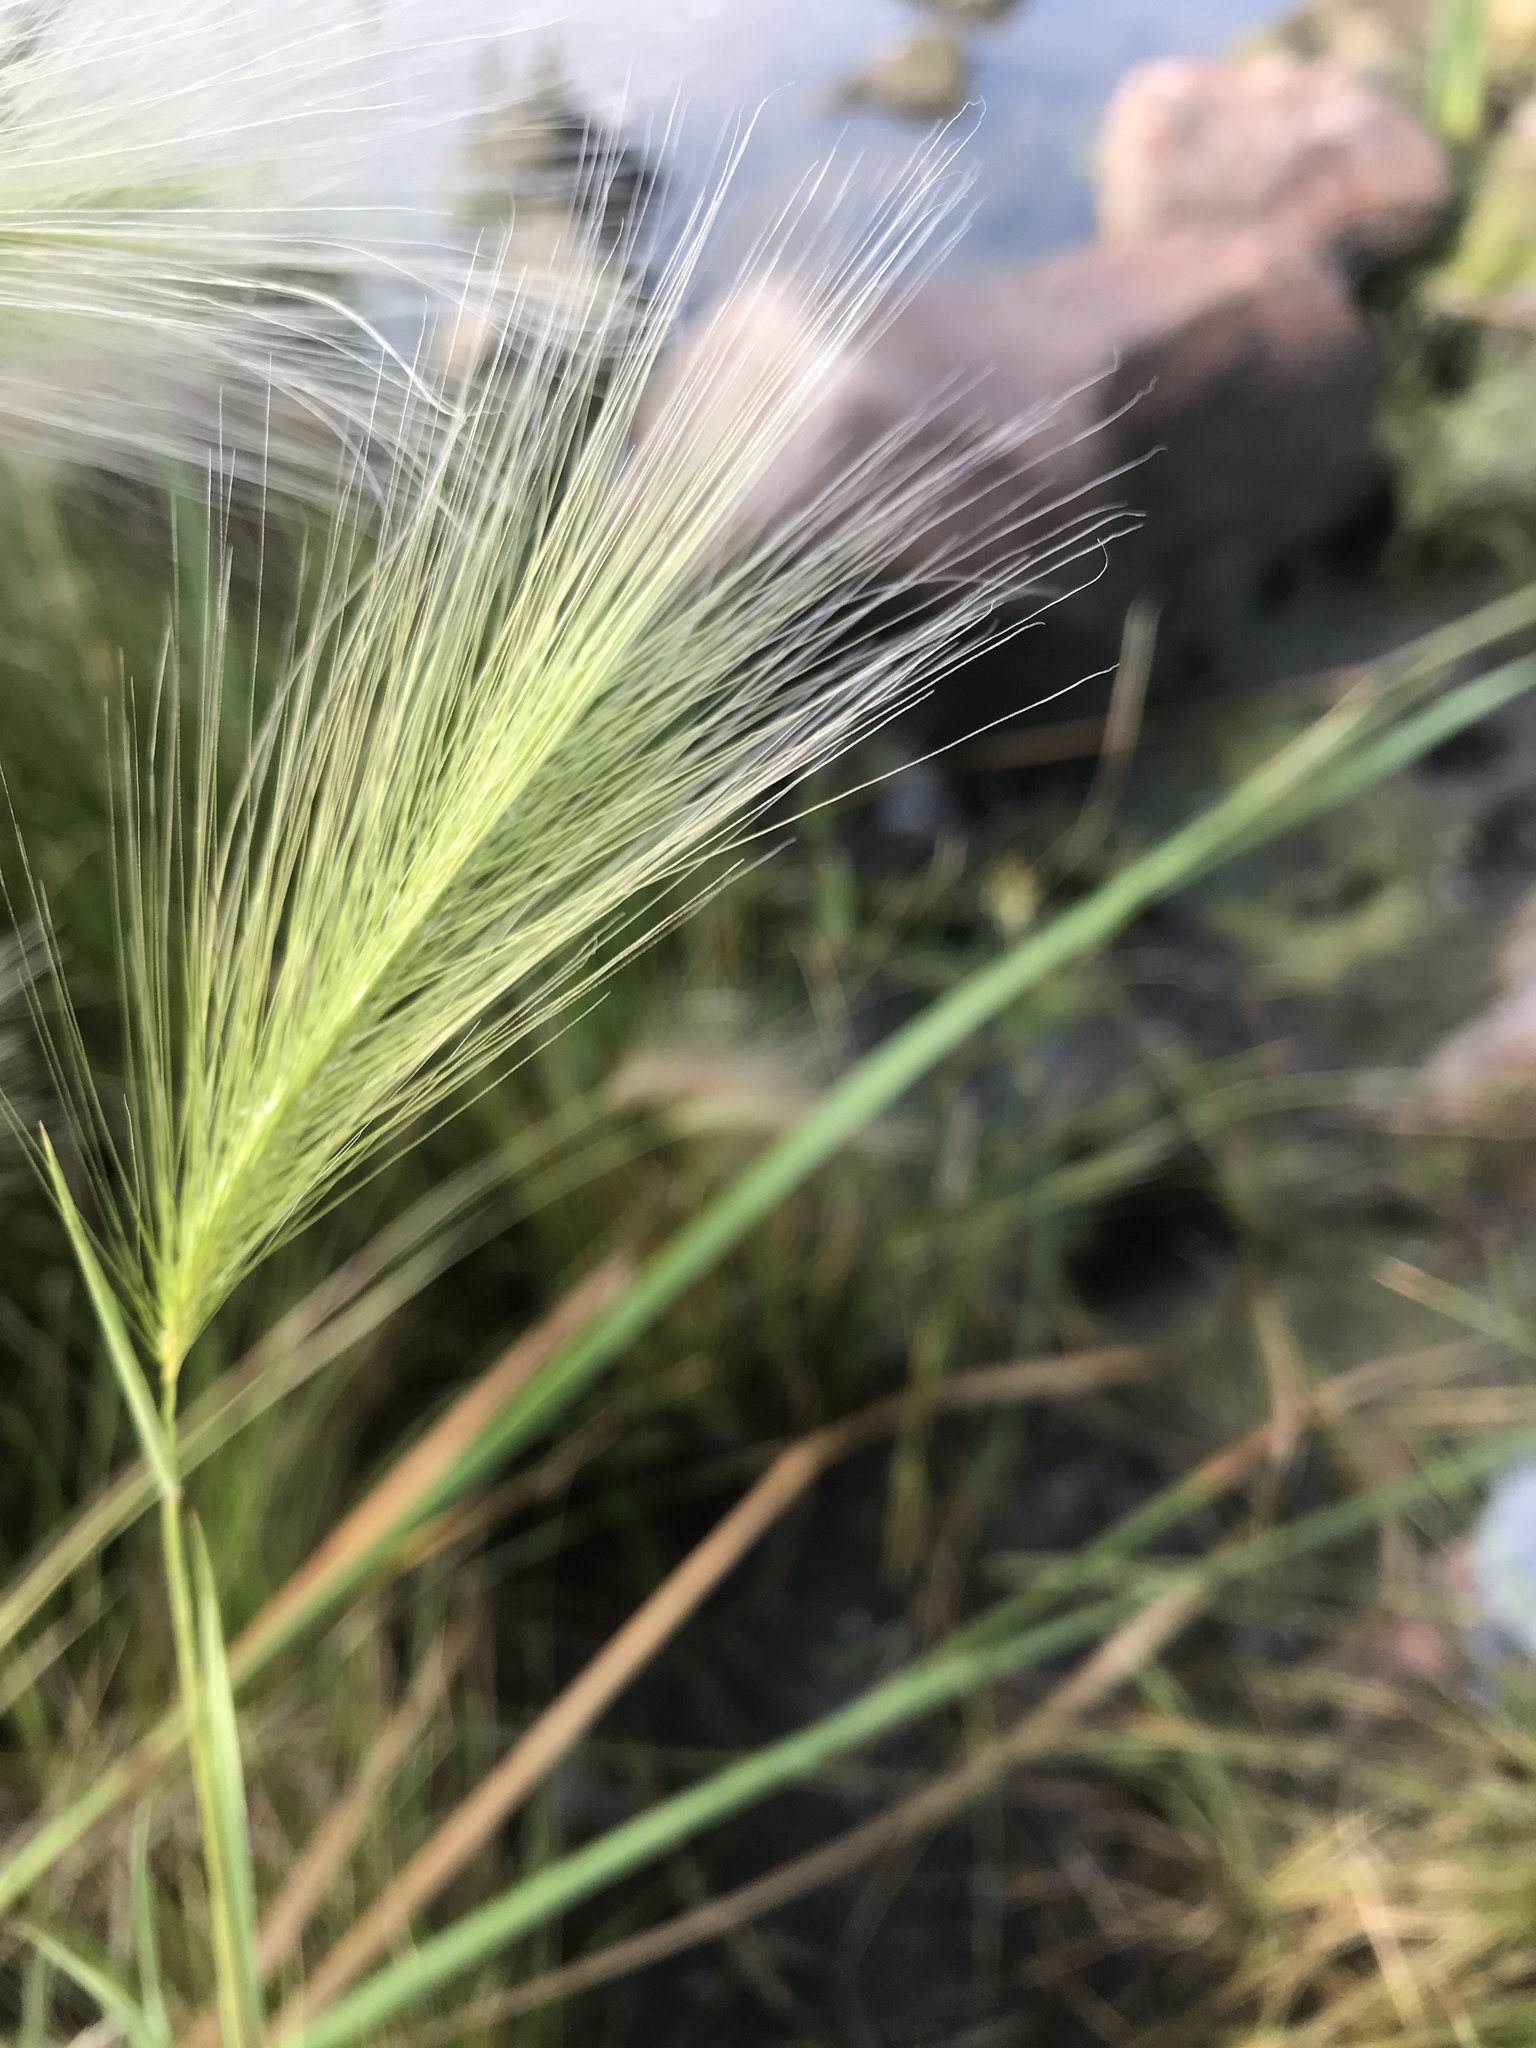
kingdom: Plantae
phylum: Tracheophyta
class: Liliopsida
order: Poales
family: Poaceae
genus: Hordeum
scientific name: Hordeum jubatum
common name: Foxtail barley
